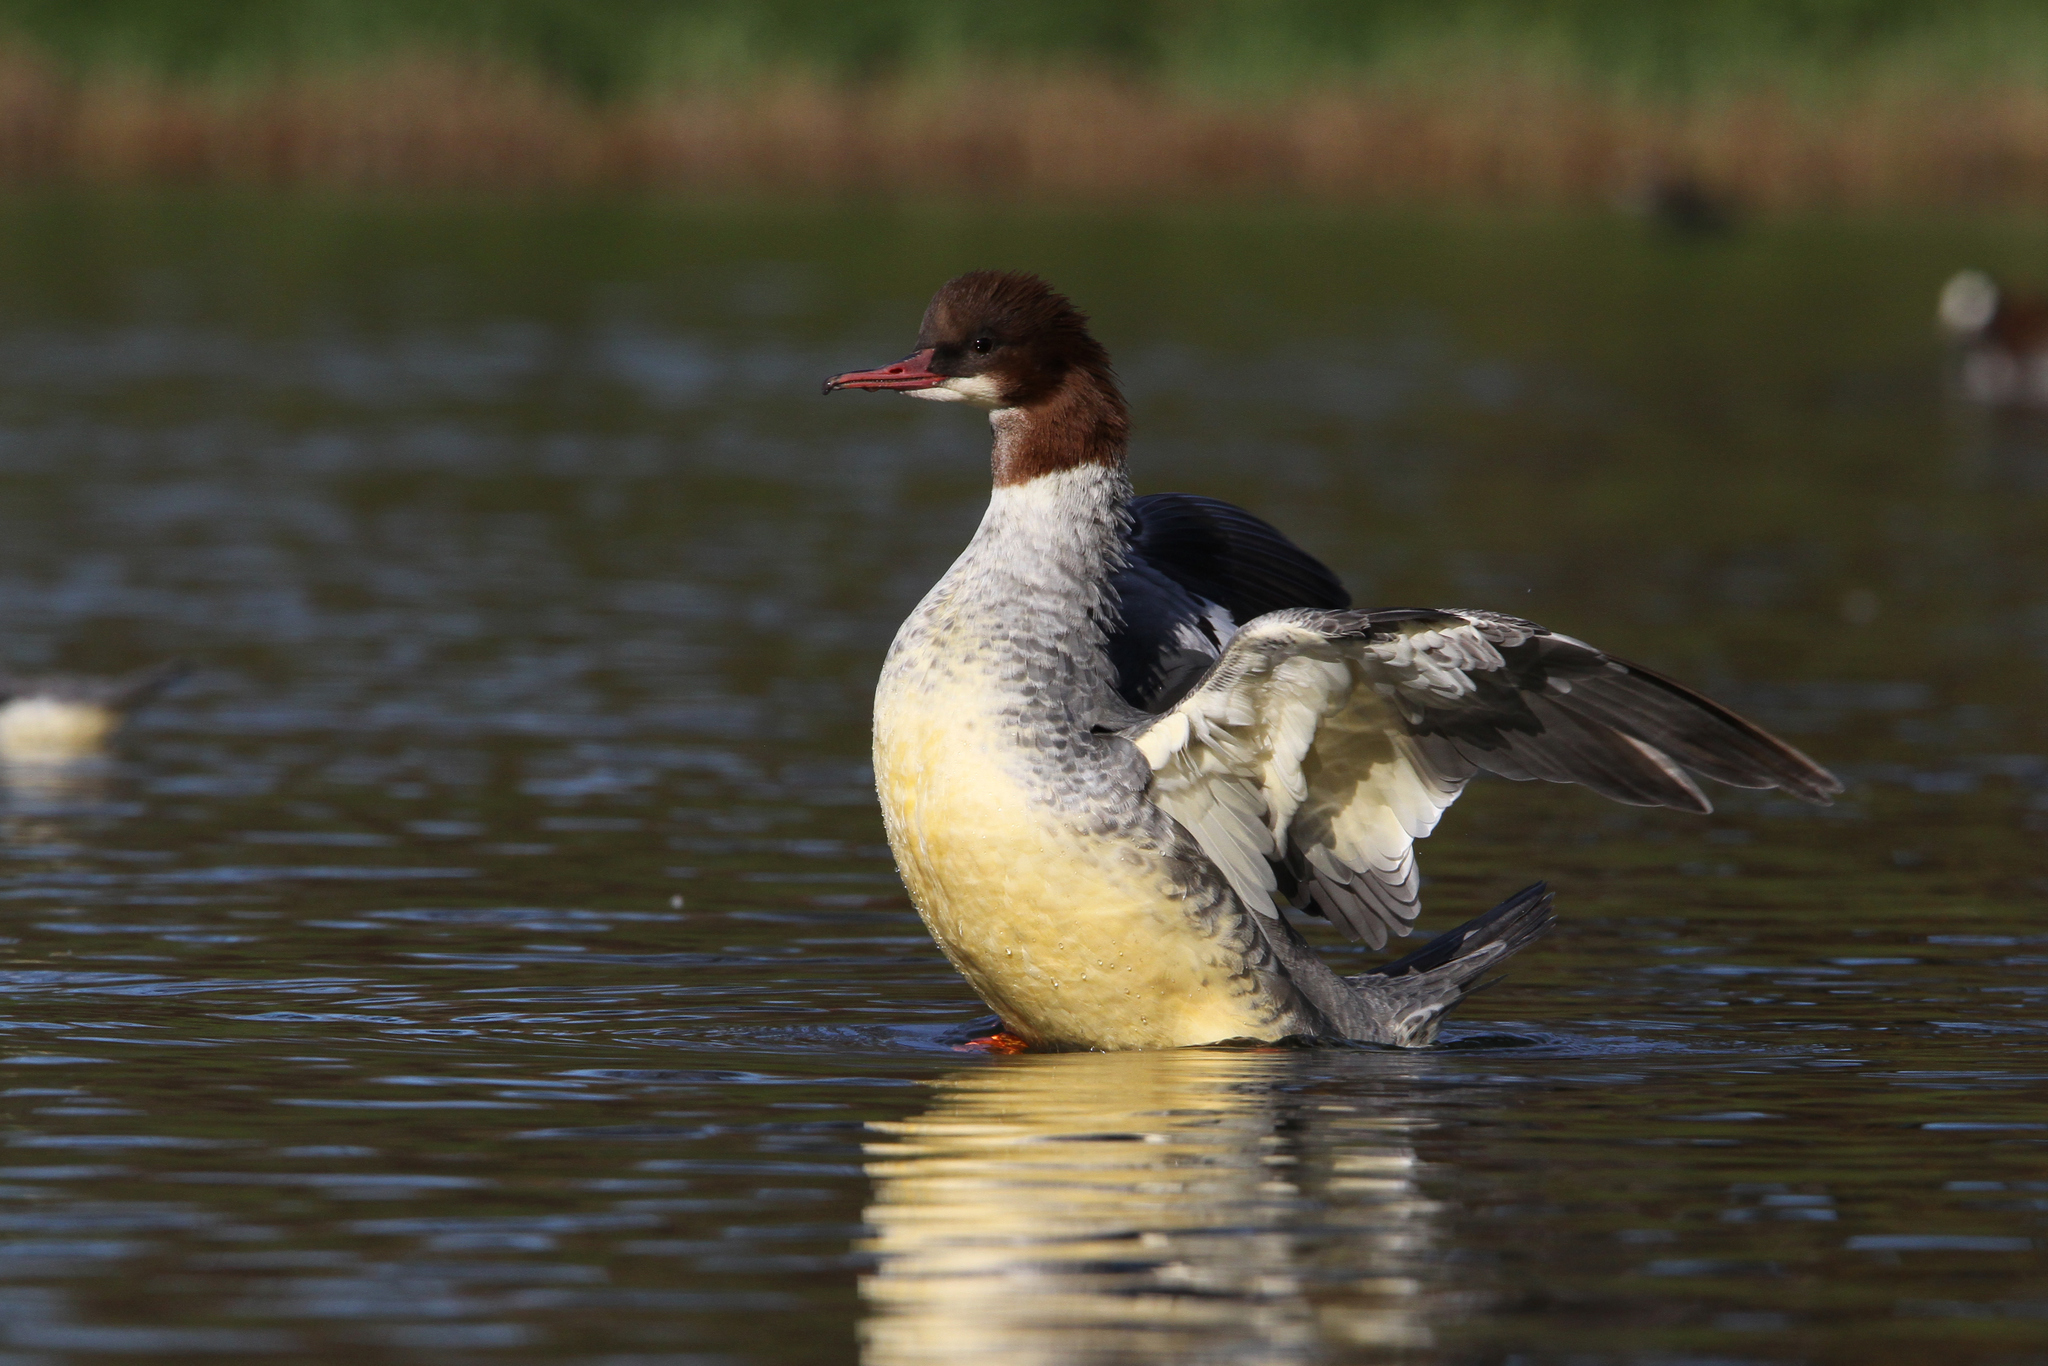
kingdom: Animalia
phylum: Chordata
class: Aves
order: Anseriformes
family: Anatidae
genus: Mergus
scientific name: Mergus merganser
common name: Common merganser
